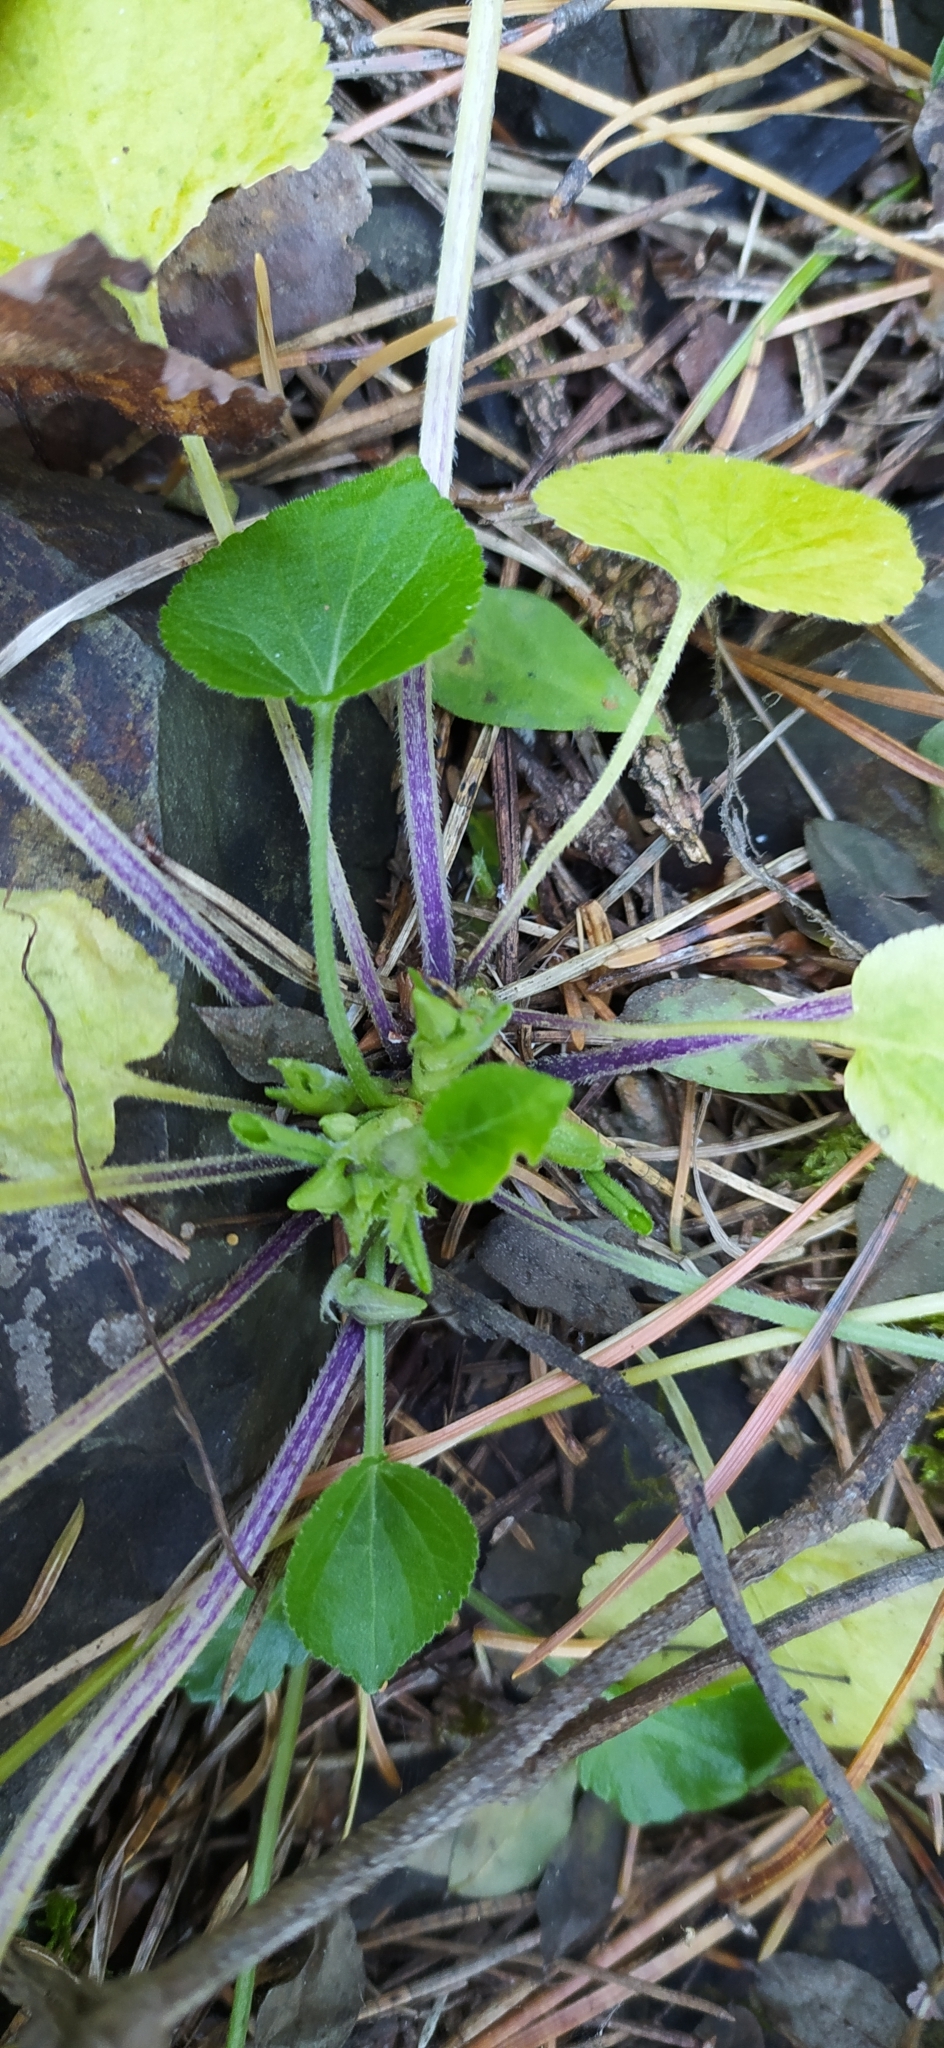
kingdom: Plantae
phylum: Tracheophyta
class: Magnoliopsida
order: Malpighiales
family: Violaceae
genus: Viola
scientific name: Viola collina
